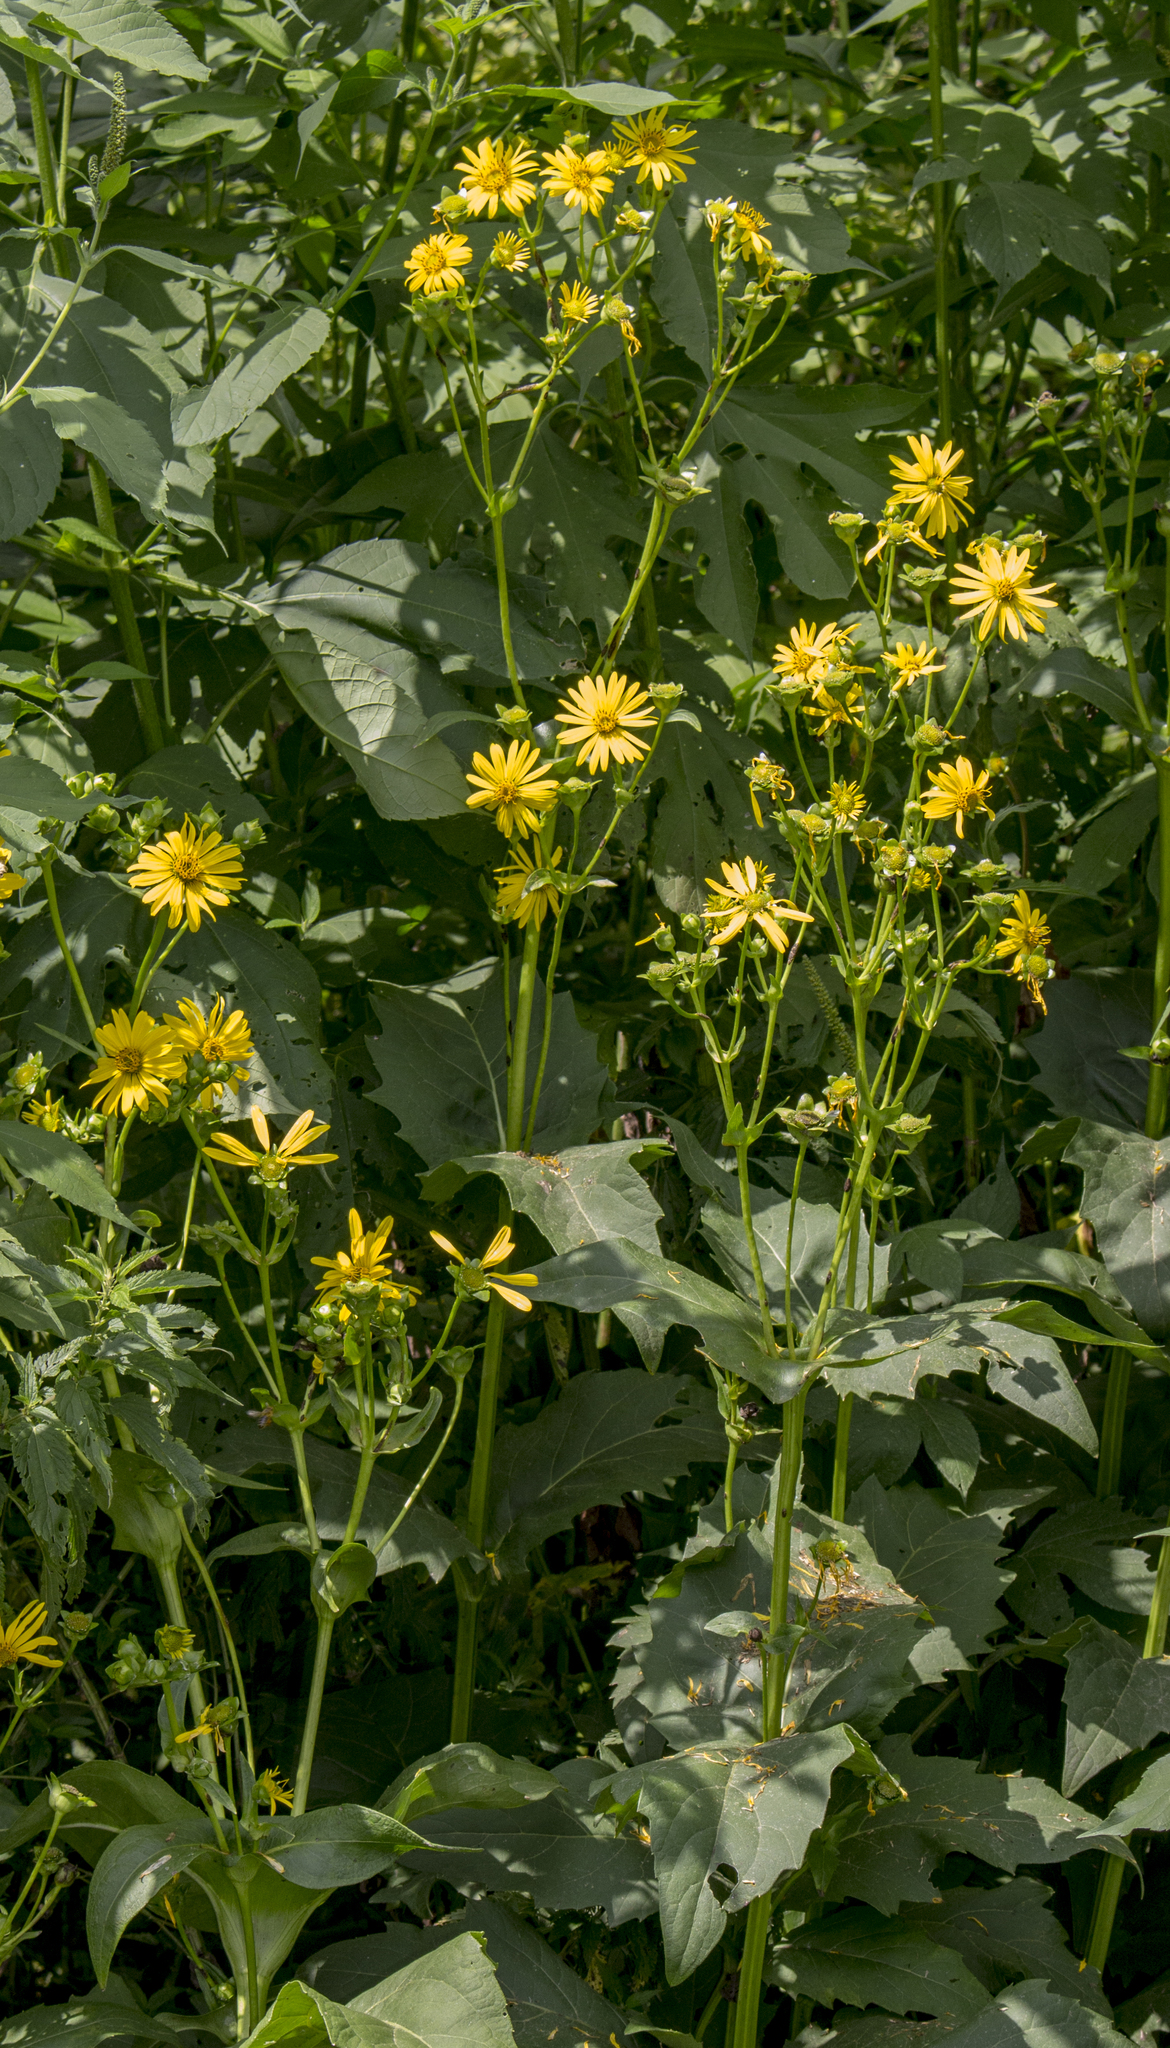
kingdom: Plantae
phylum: Tracheophyta
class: Magnoliopsida
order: Asterales
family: Asteraceae
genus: Silphium
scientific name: Silphium perfoliatum
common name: Cup-plant
